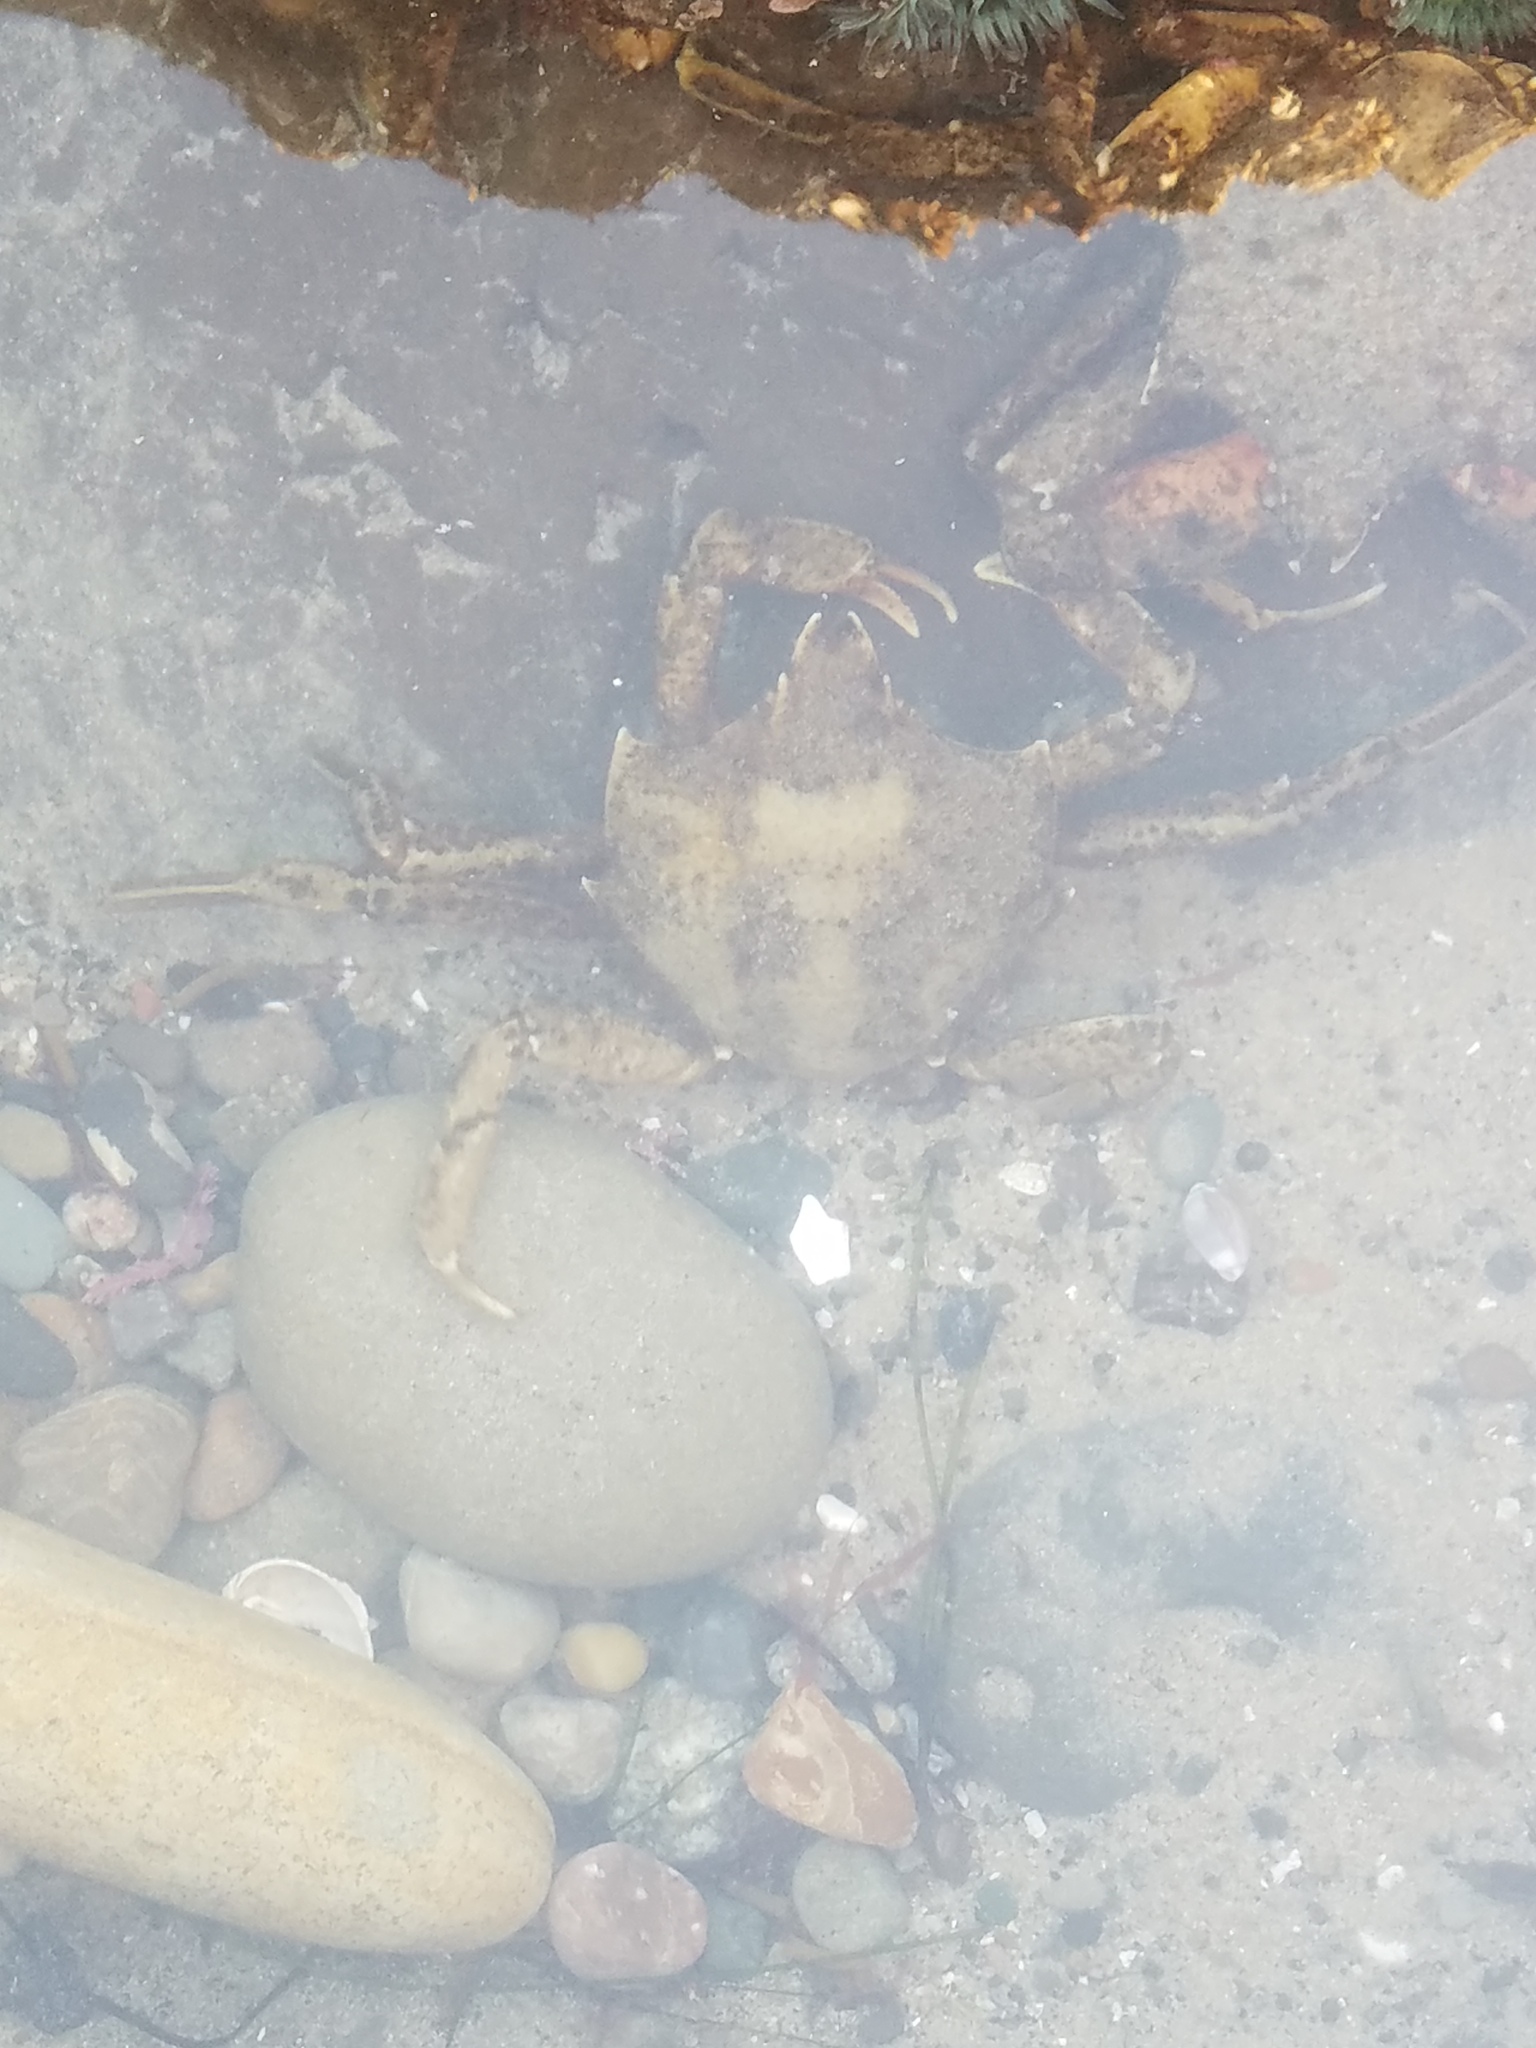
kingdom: Animalia
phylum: Arthropoda
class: Malacostraca
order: Decapoda
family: Epialtidae
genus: Pugettia
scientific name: Pugettia producta
